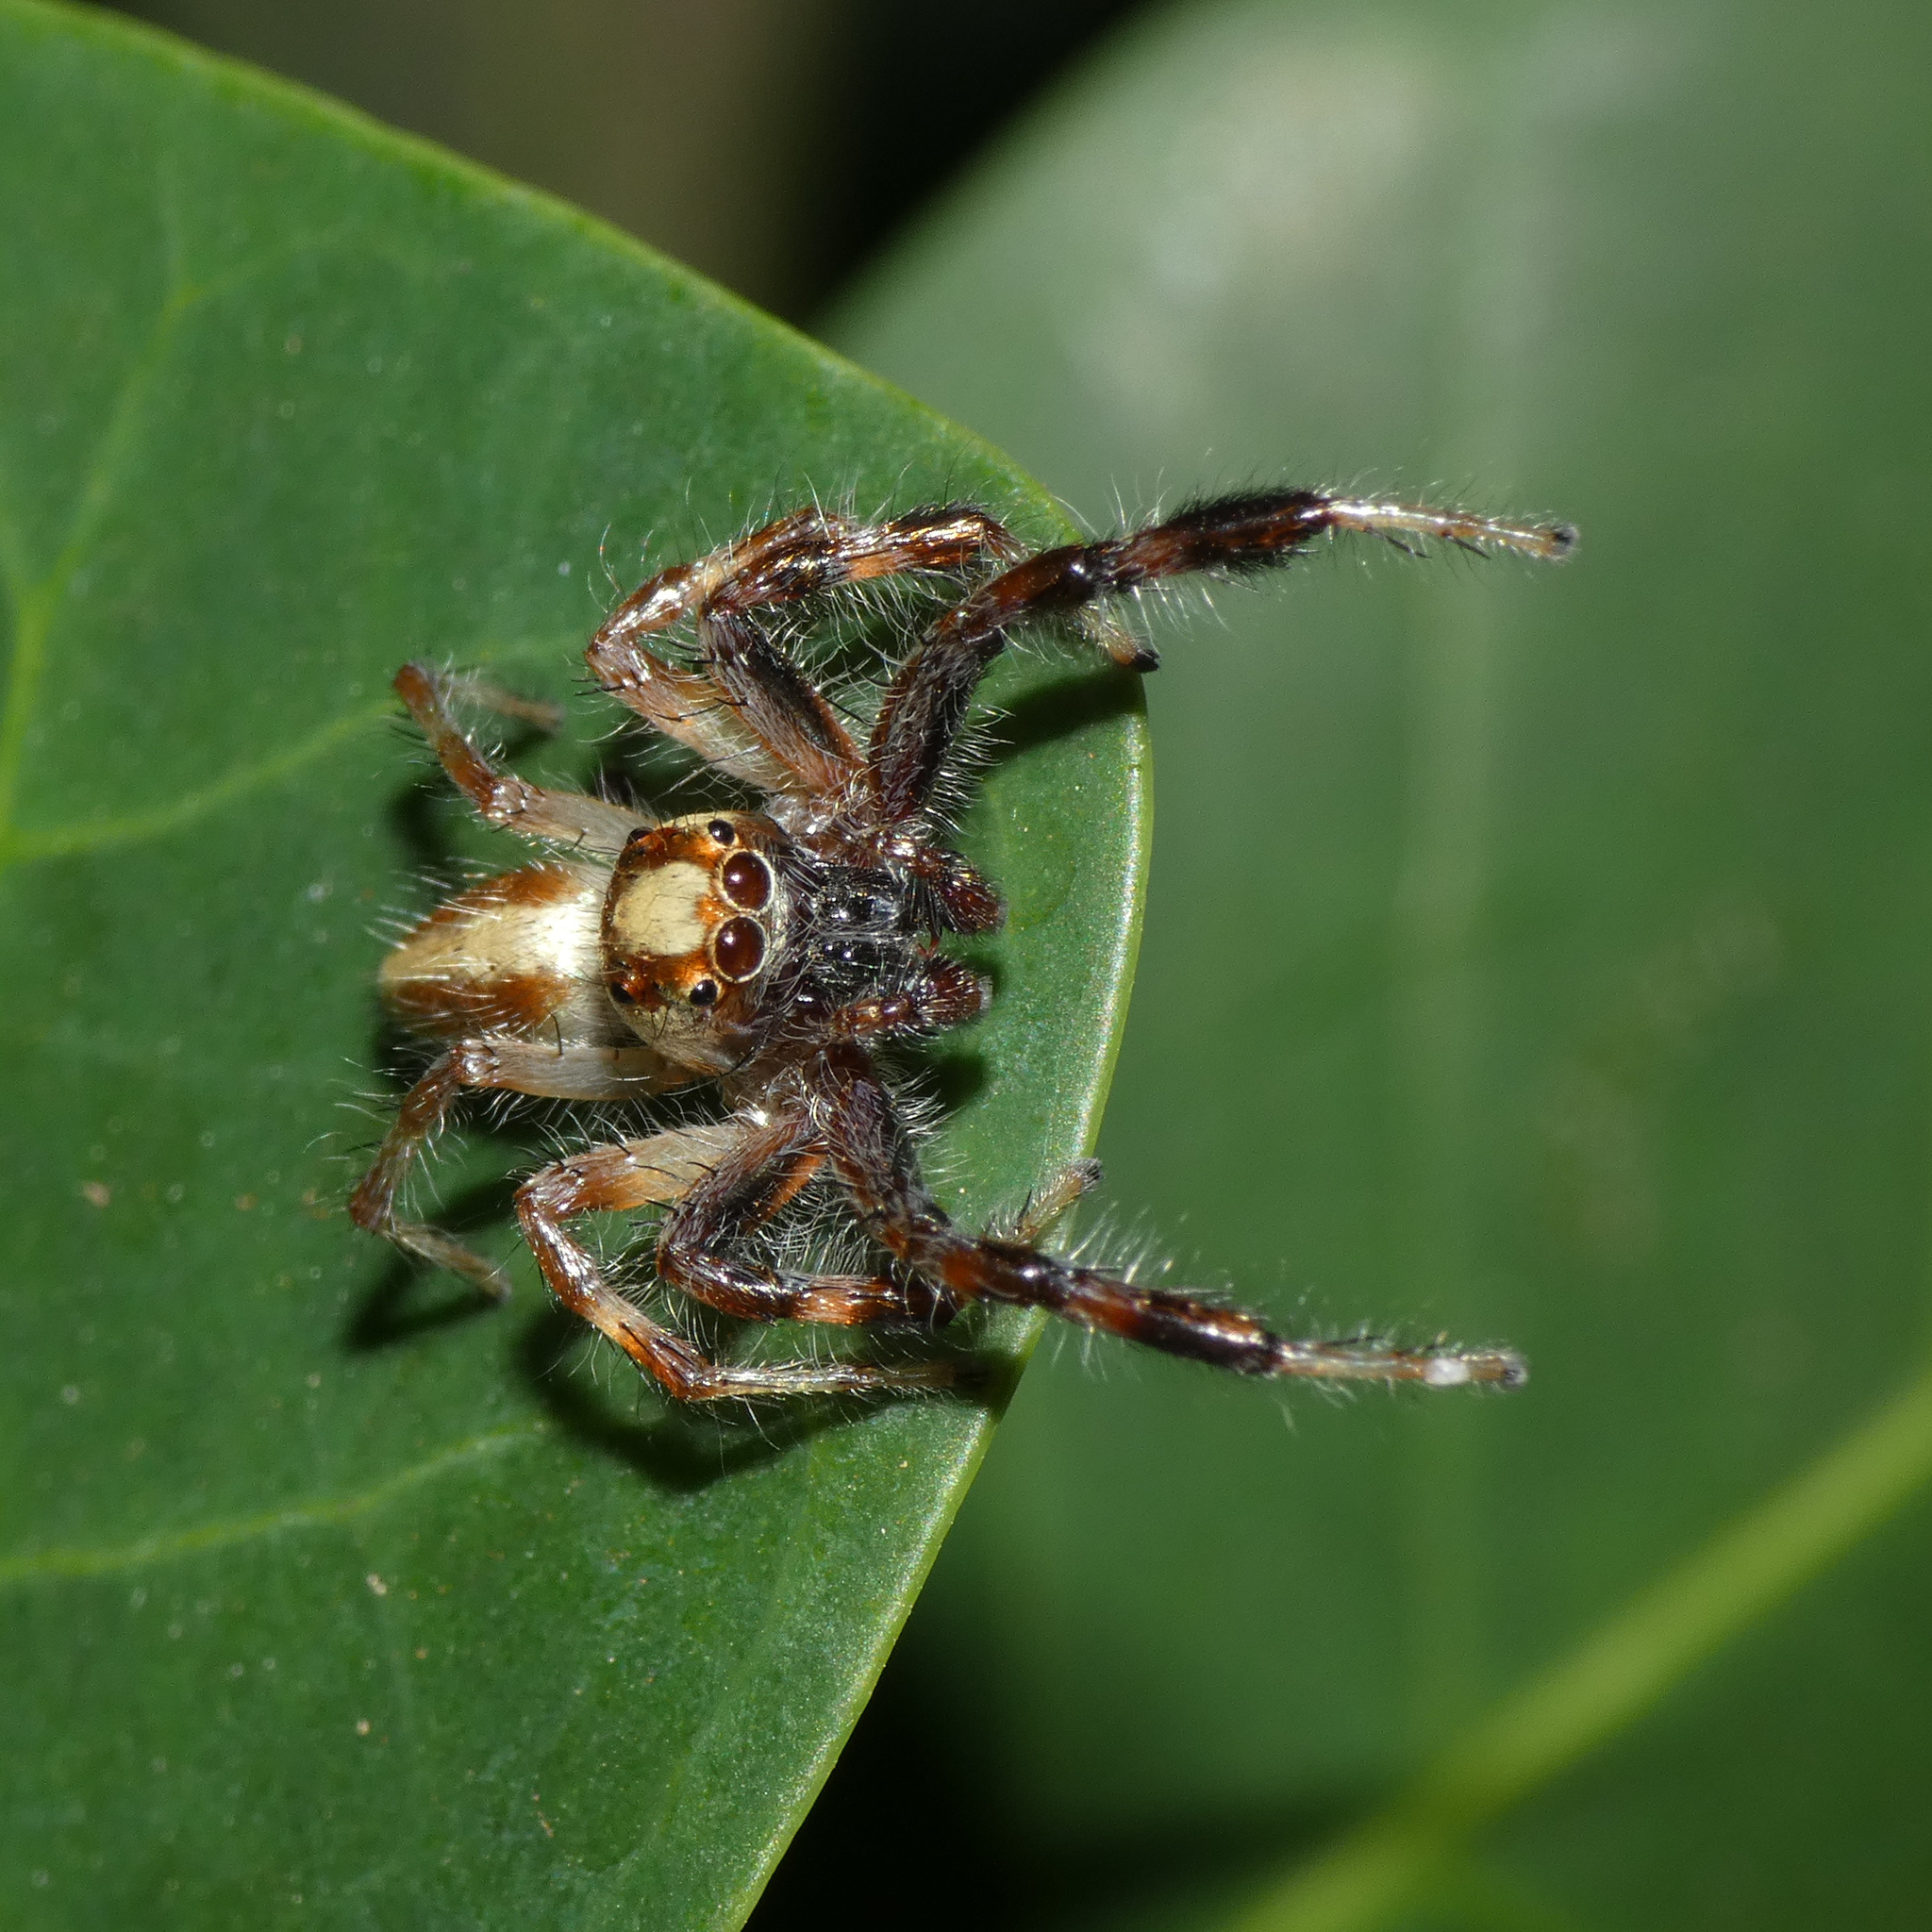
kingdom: Animalia
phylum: Arthropoda
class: Arachnida
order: Araneae
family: Salticidae
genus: Brancus
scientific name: Brancus mustelus
